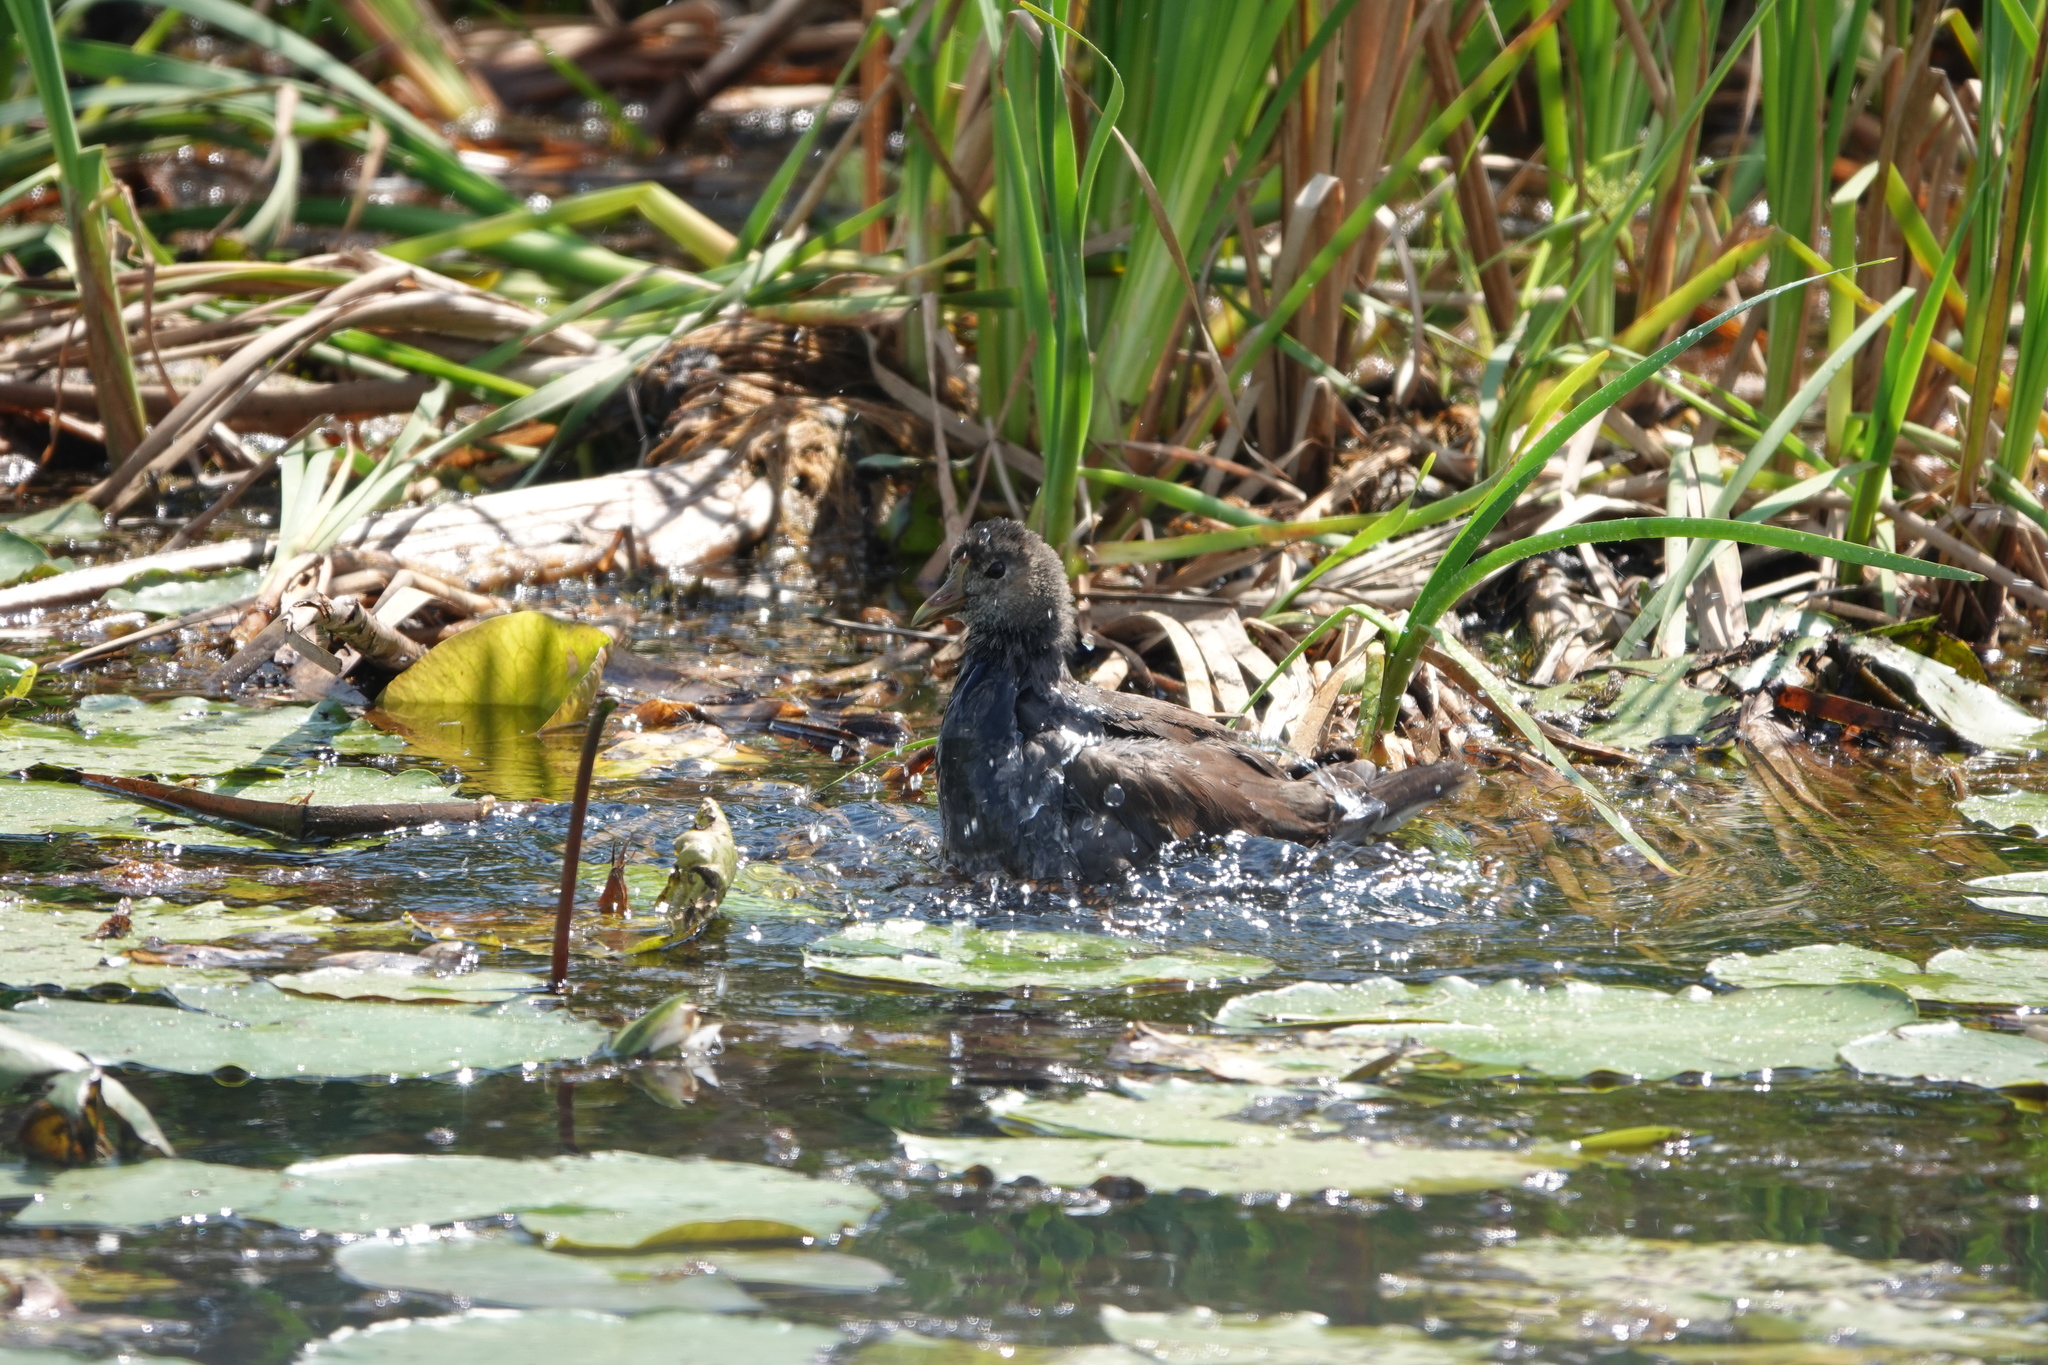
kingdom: Animalia
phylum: Chordata
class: Aves
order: Gruiformes
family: Rallidae
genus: Gallinula
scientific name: Gallinula chloropus
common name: Common moorhen
